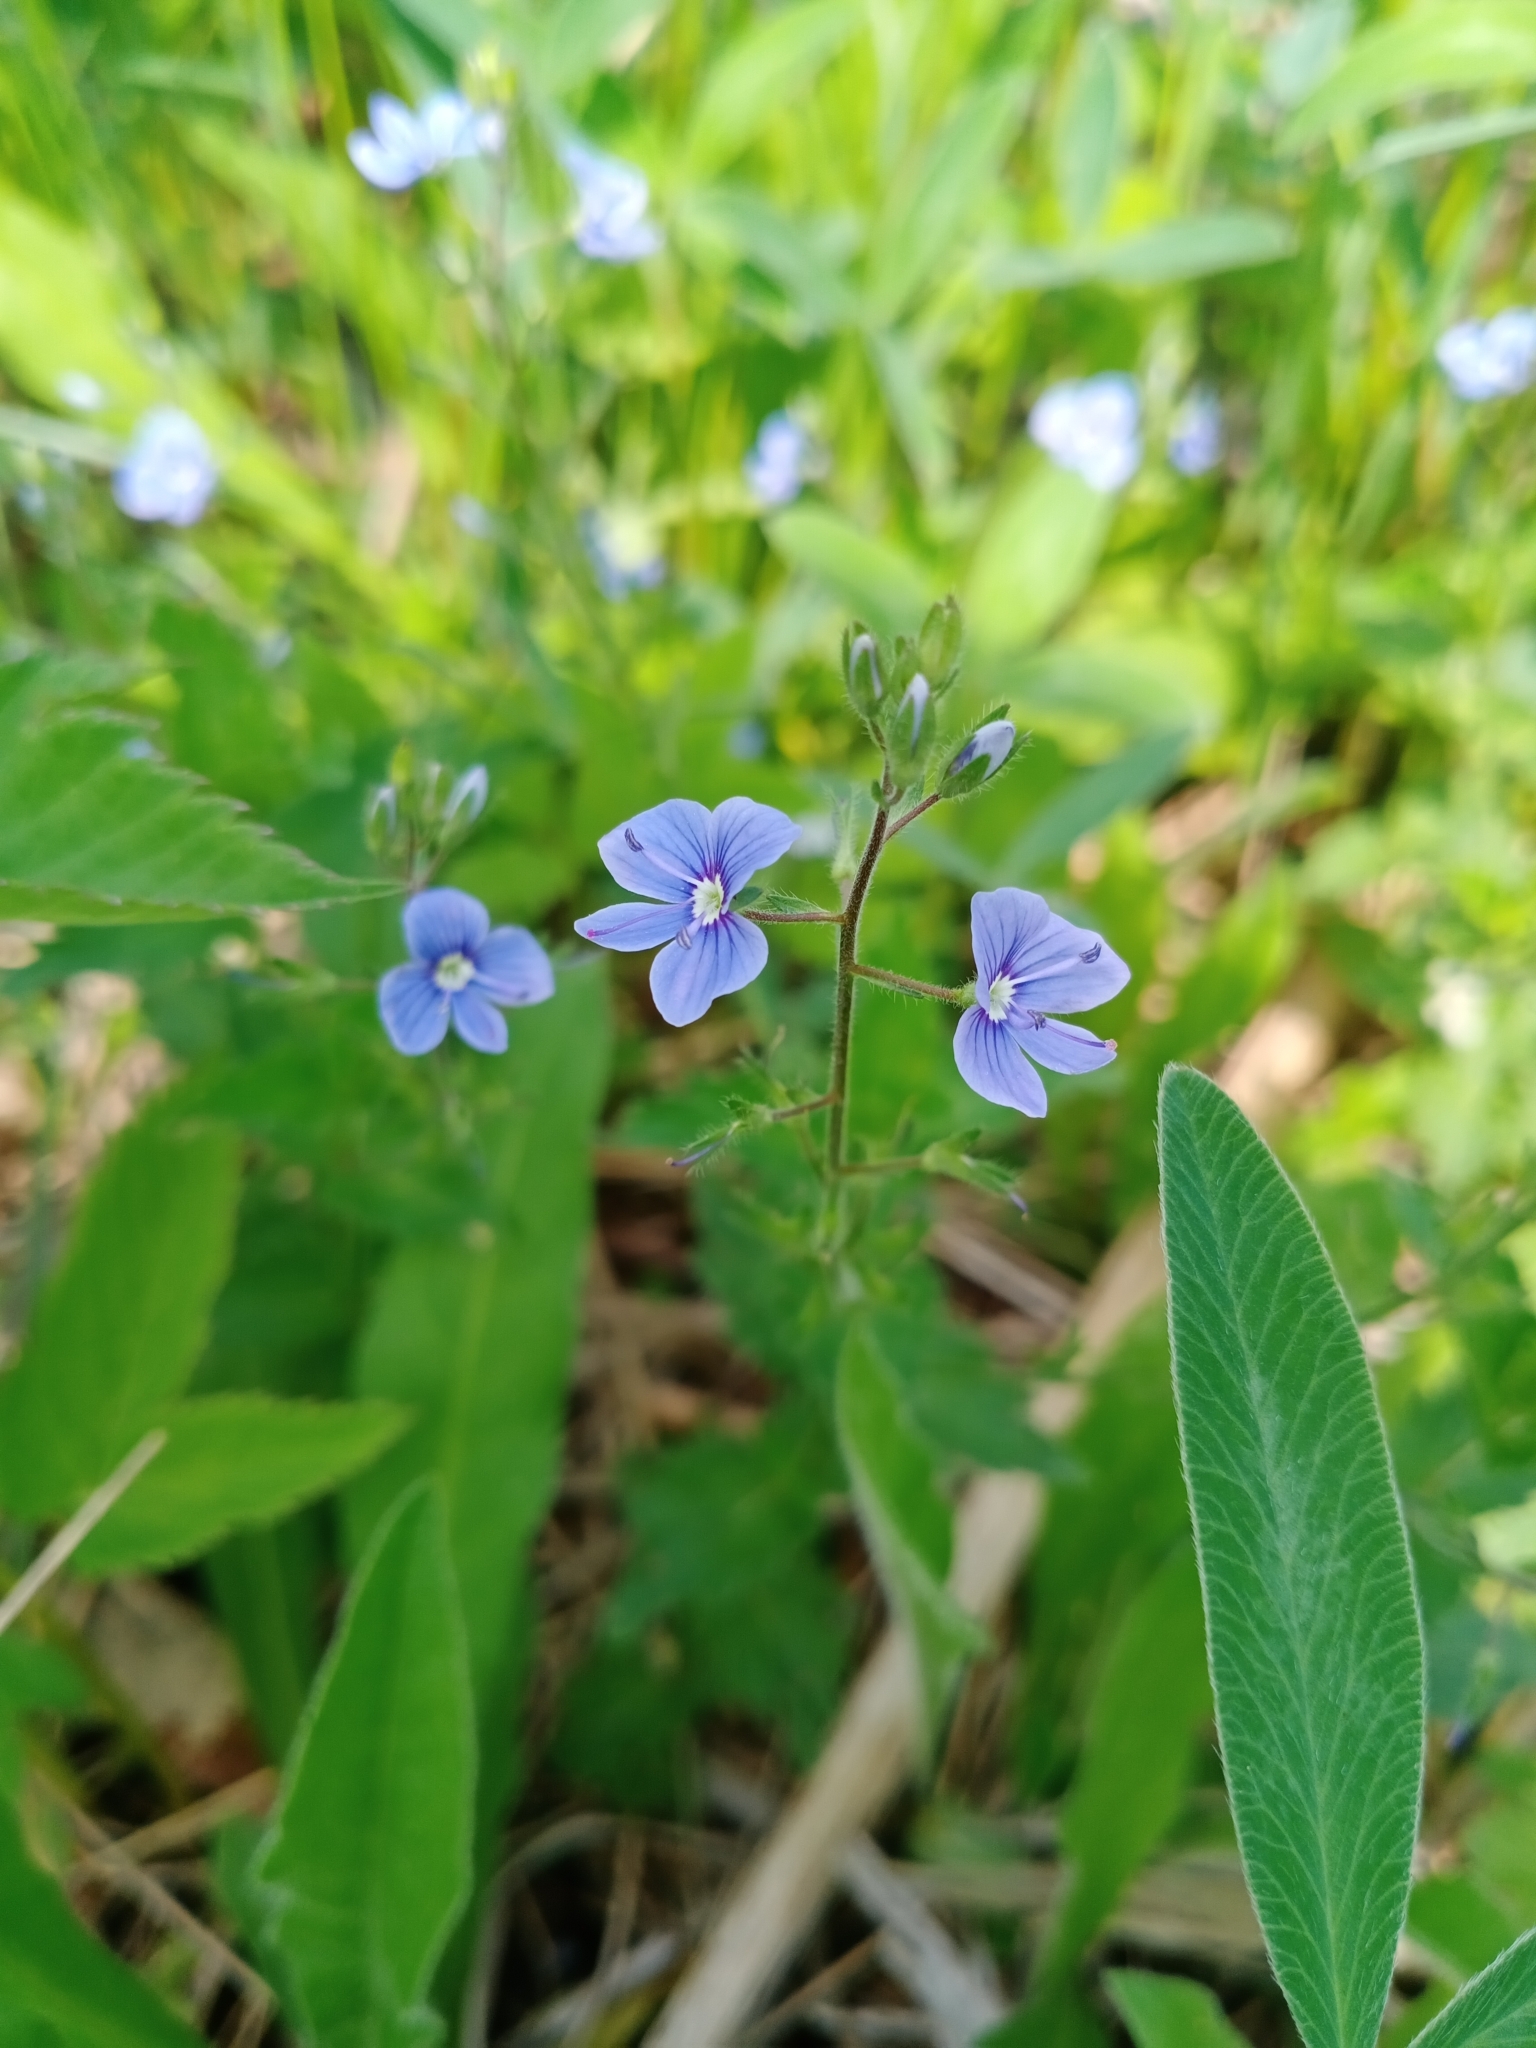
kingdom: Plantae
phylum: Tracheophyta
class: Magnoliopsida
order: Lamiales
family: Plantaginaceae
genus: Veronica
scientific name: Veronica chamaedrys
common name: Germander speedwell
